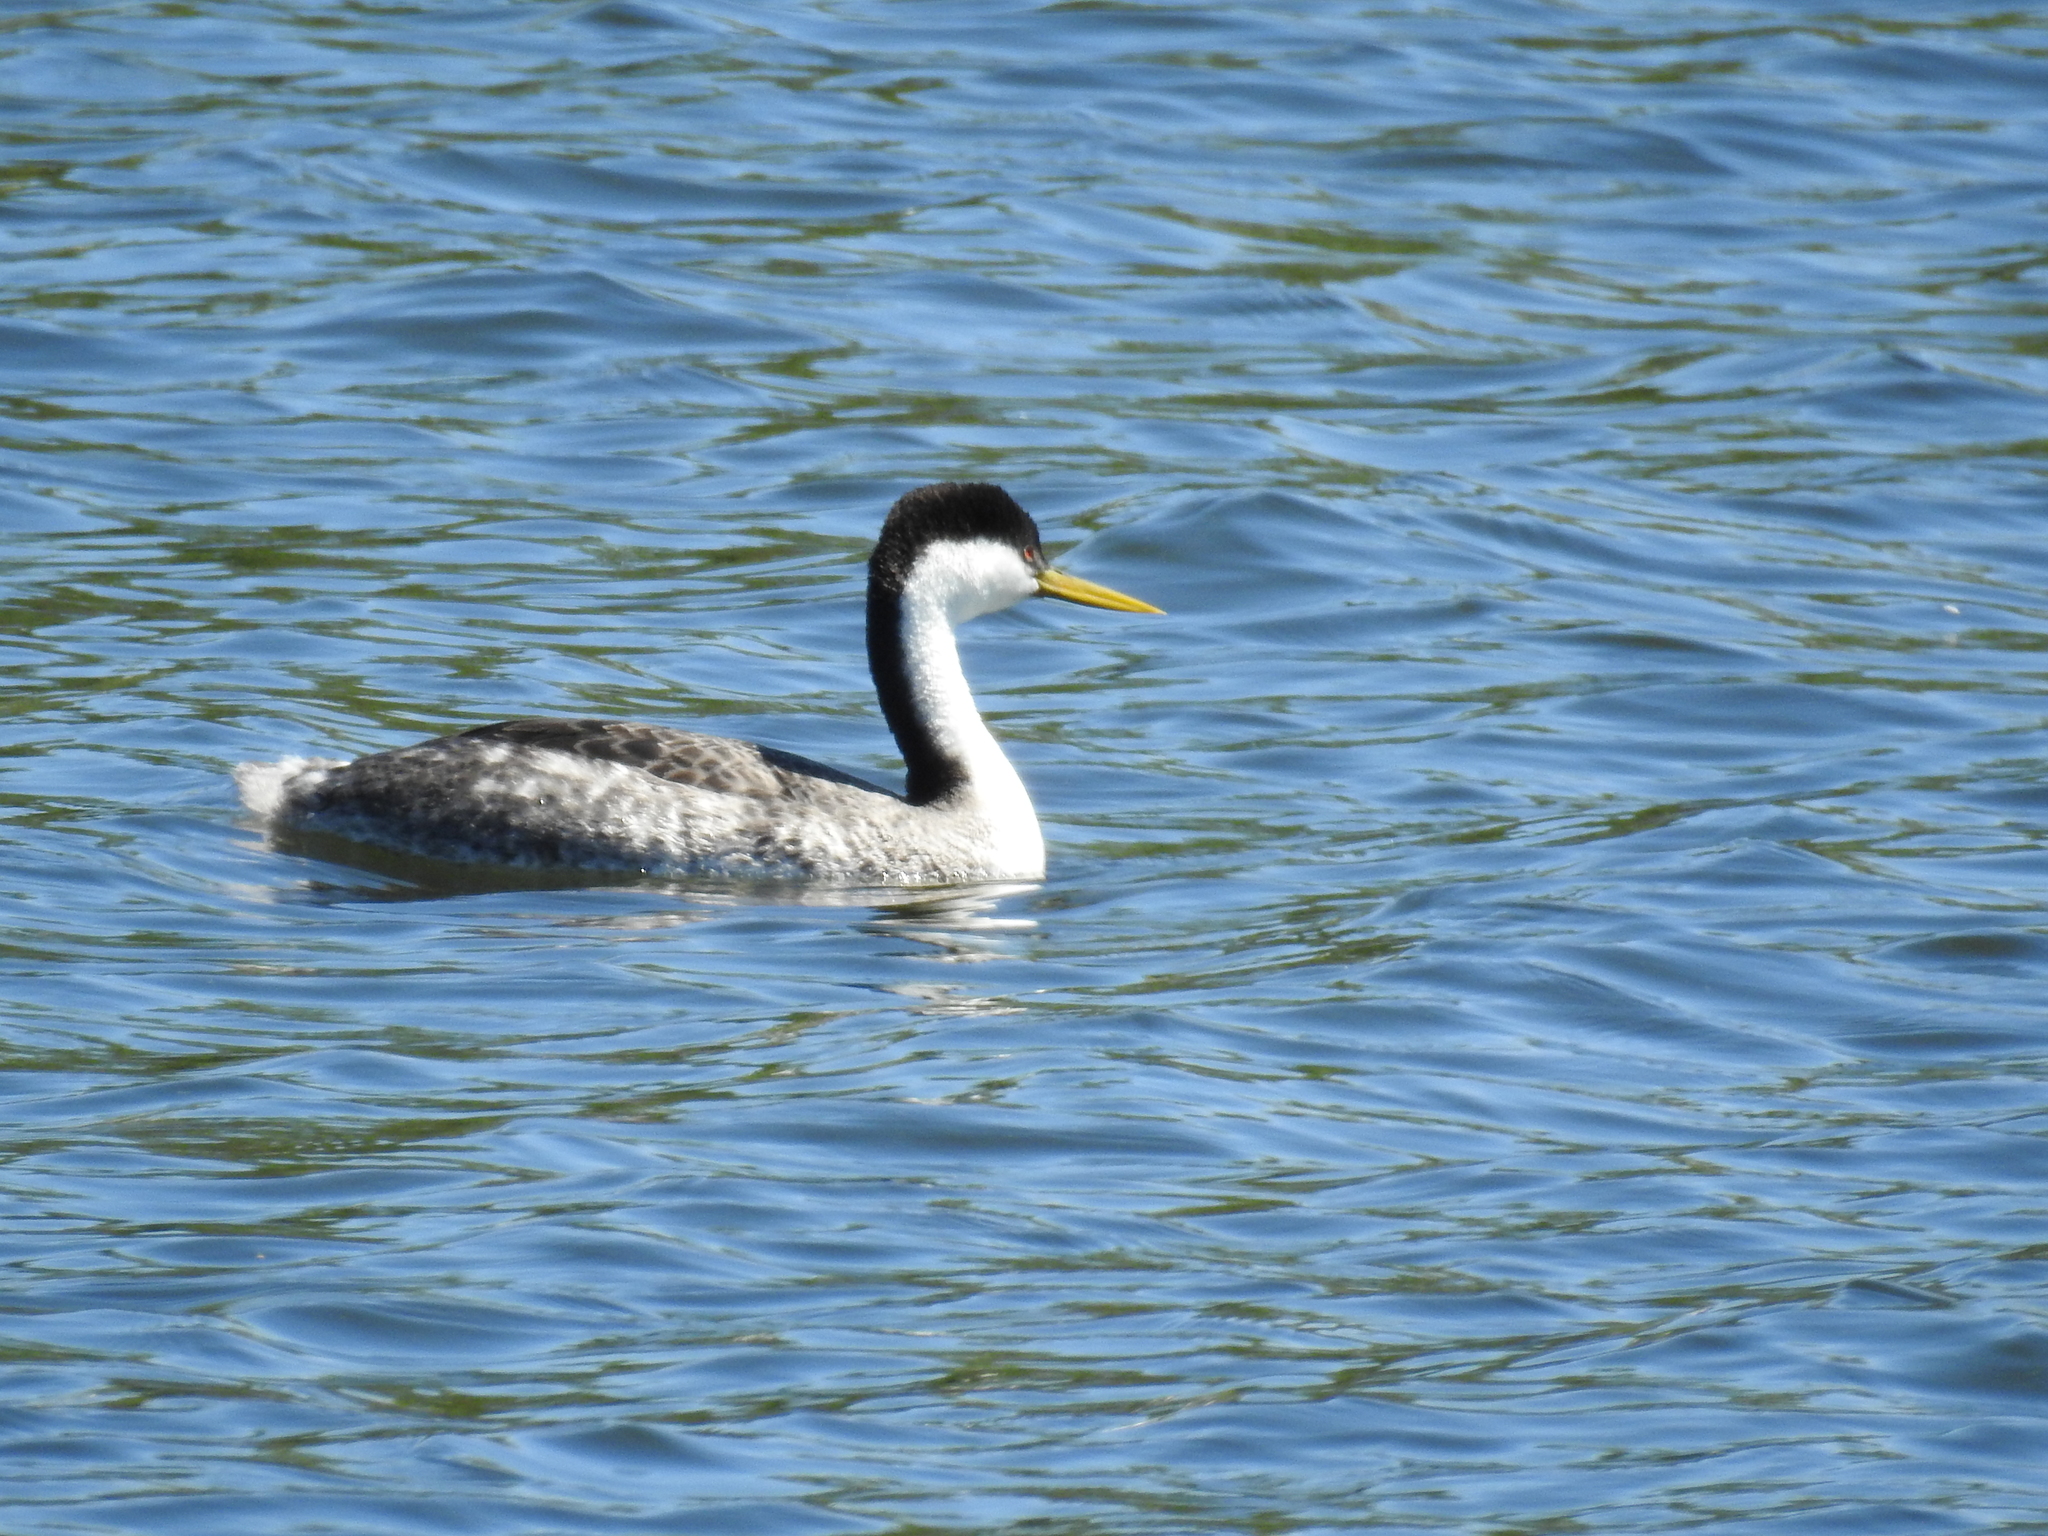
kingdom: Animalia
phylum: Chordata
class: Aves
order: Podicipediformes
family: Podicipedidae
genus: Aechmophorus
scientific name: Aechmophorus occidentalis
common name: Western grebe
